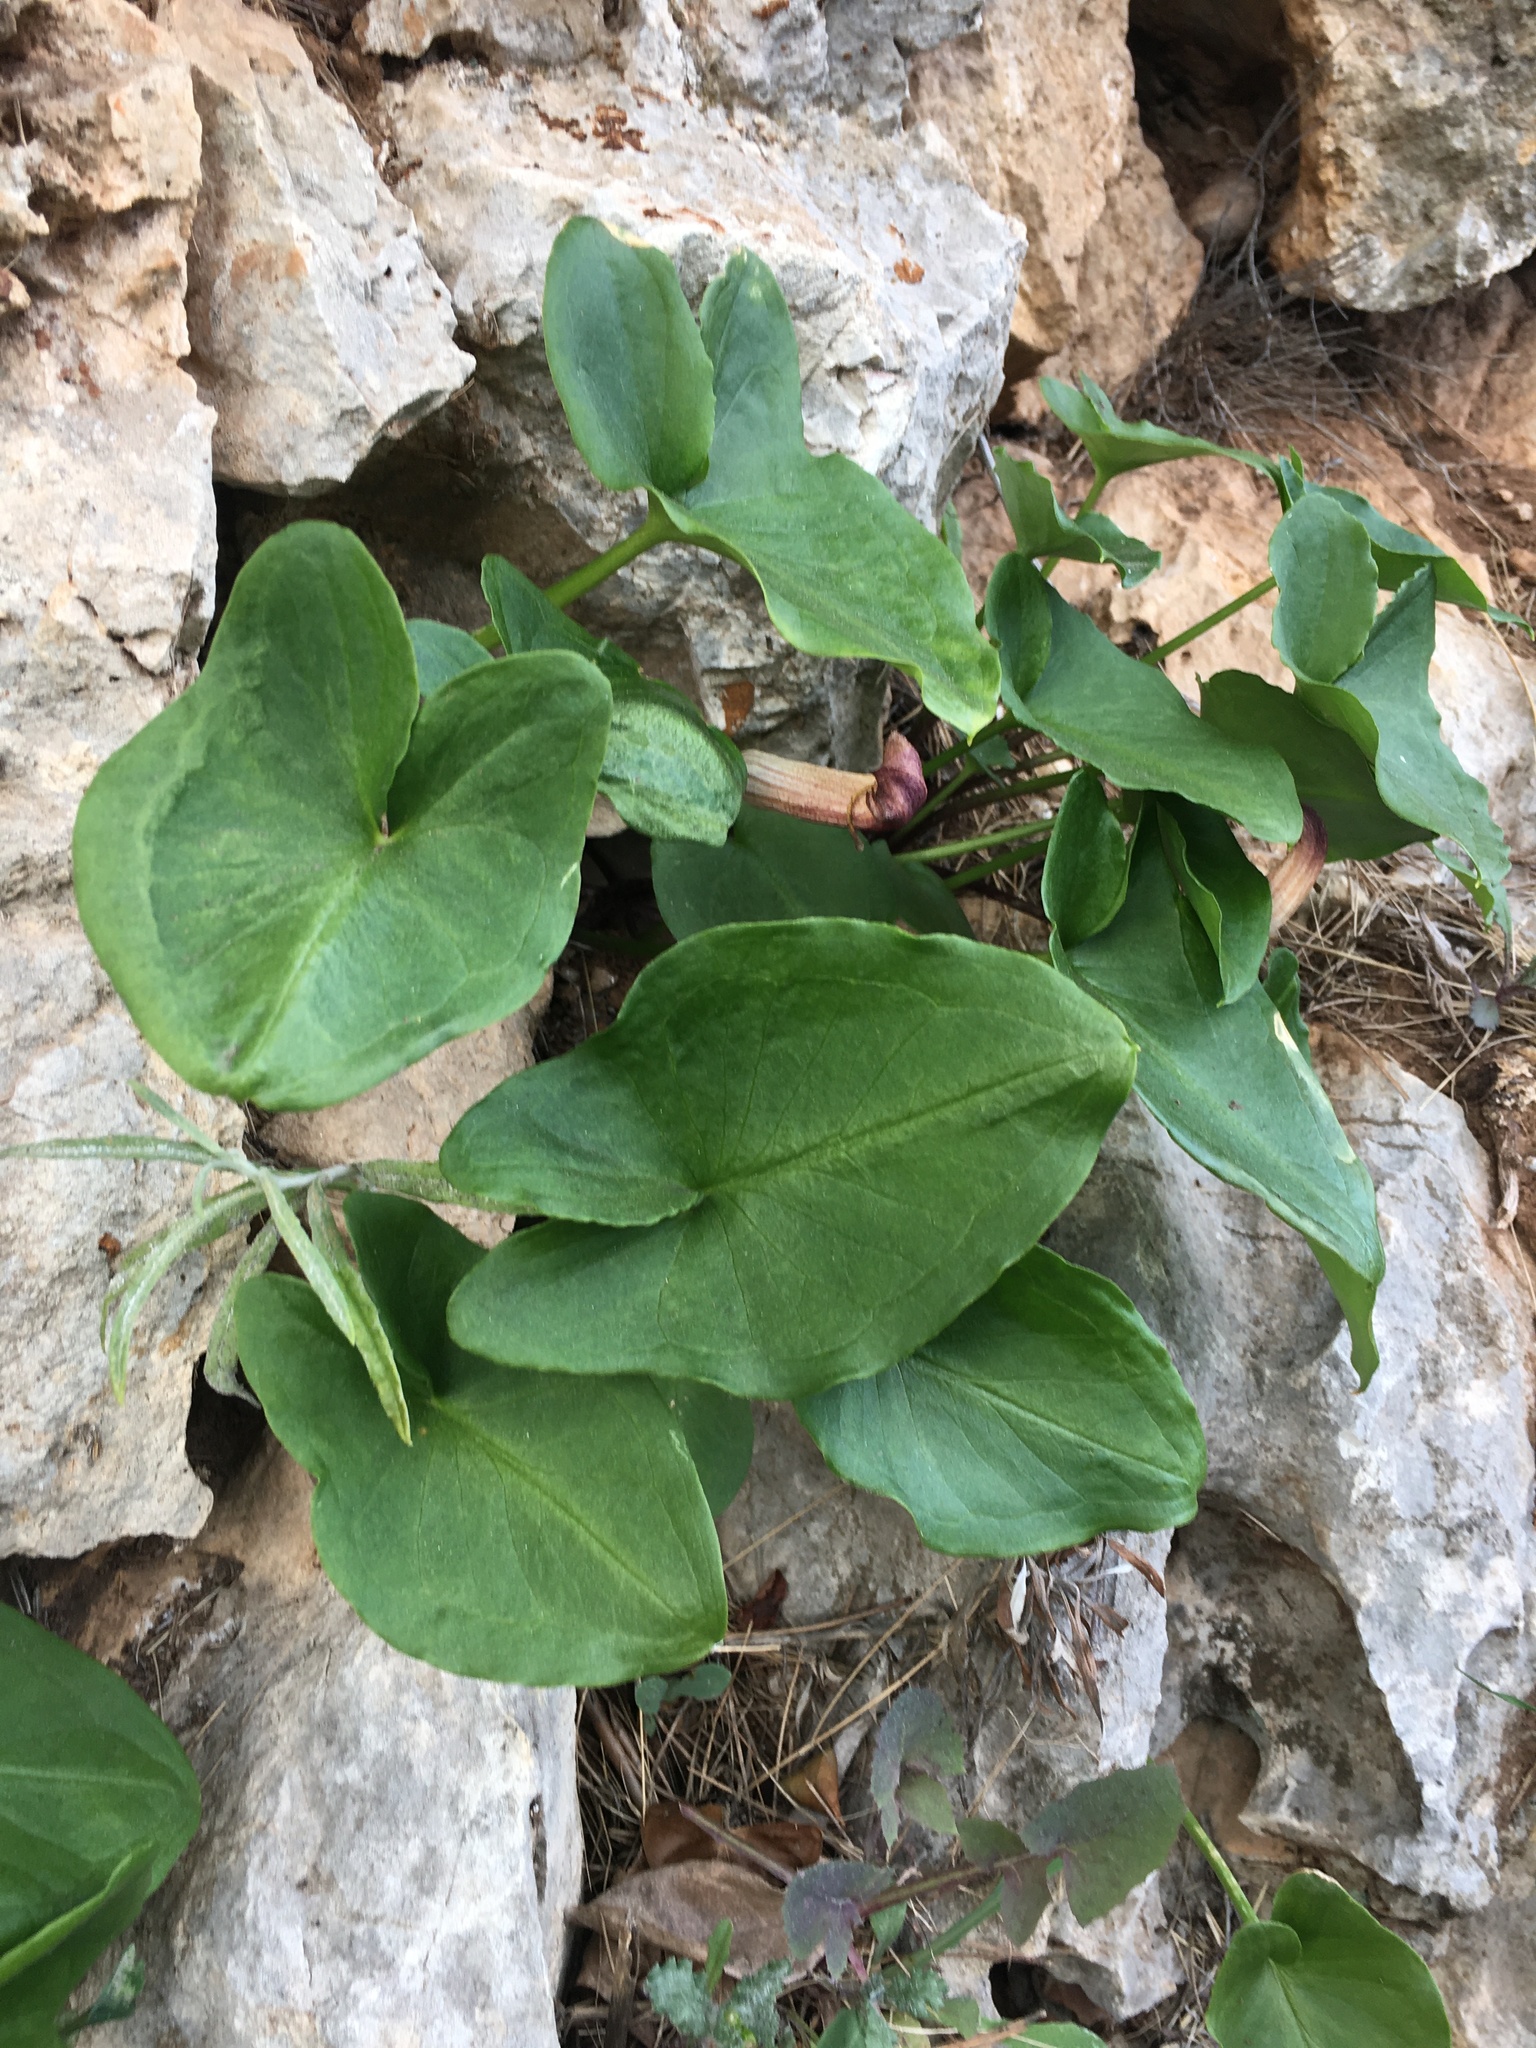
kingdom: Plantae
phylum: Tracheophyta
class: Liliopsida
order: Alismatales
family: Araceae
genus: Arisarum
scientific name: Arisarum vulgare
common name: Common arisarum
